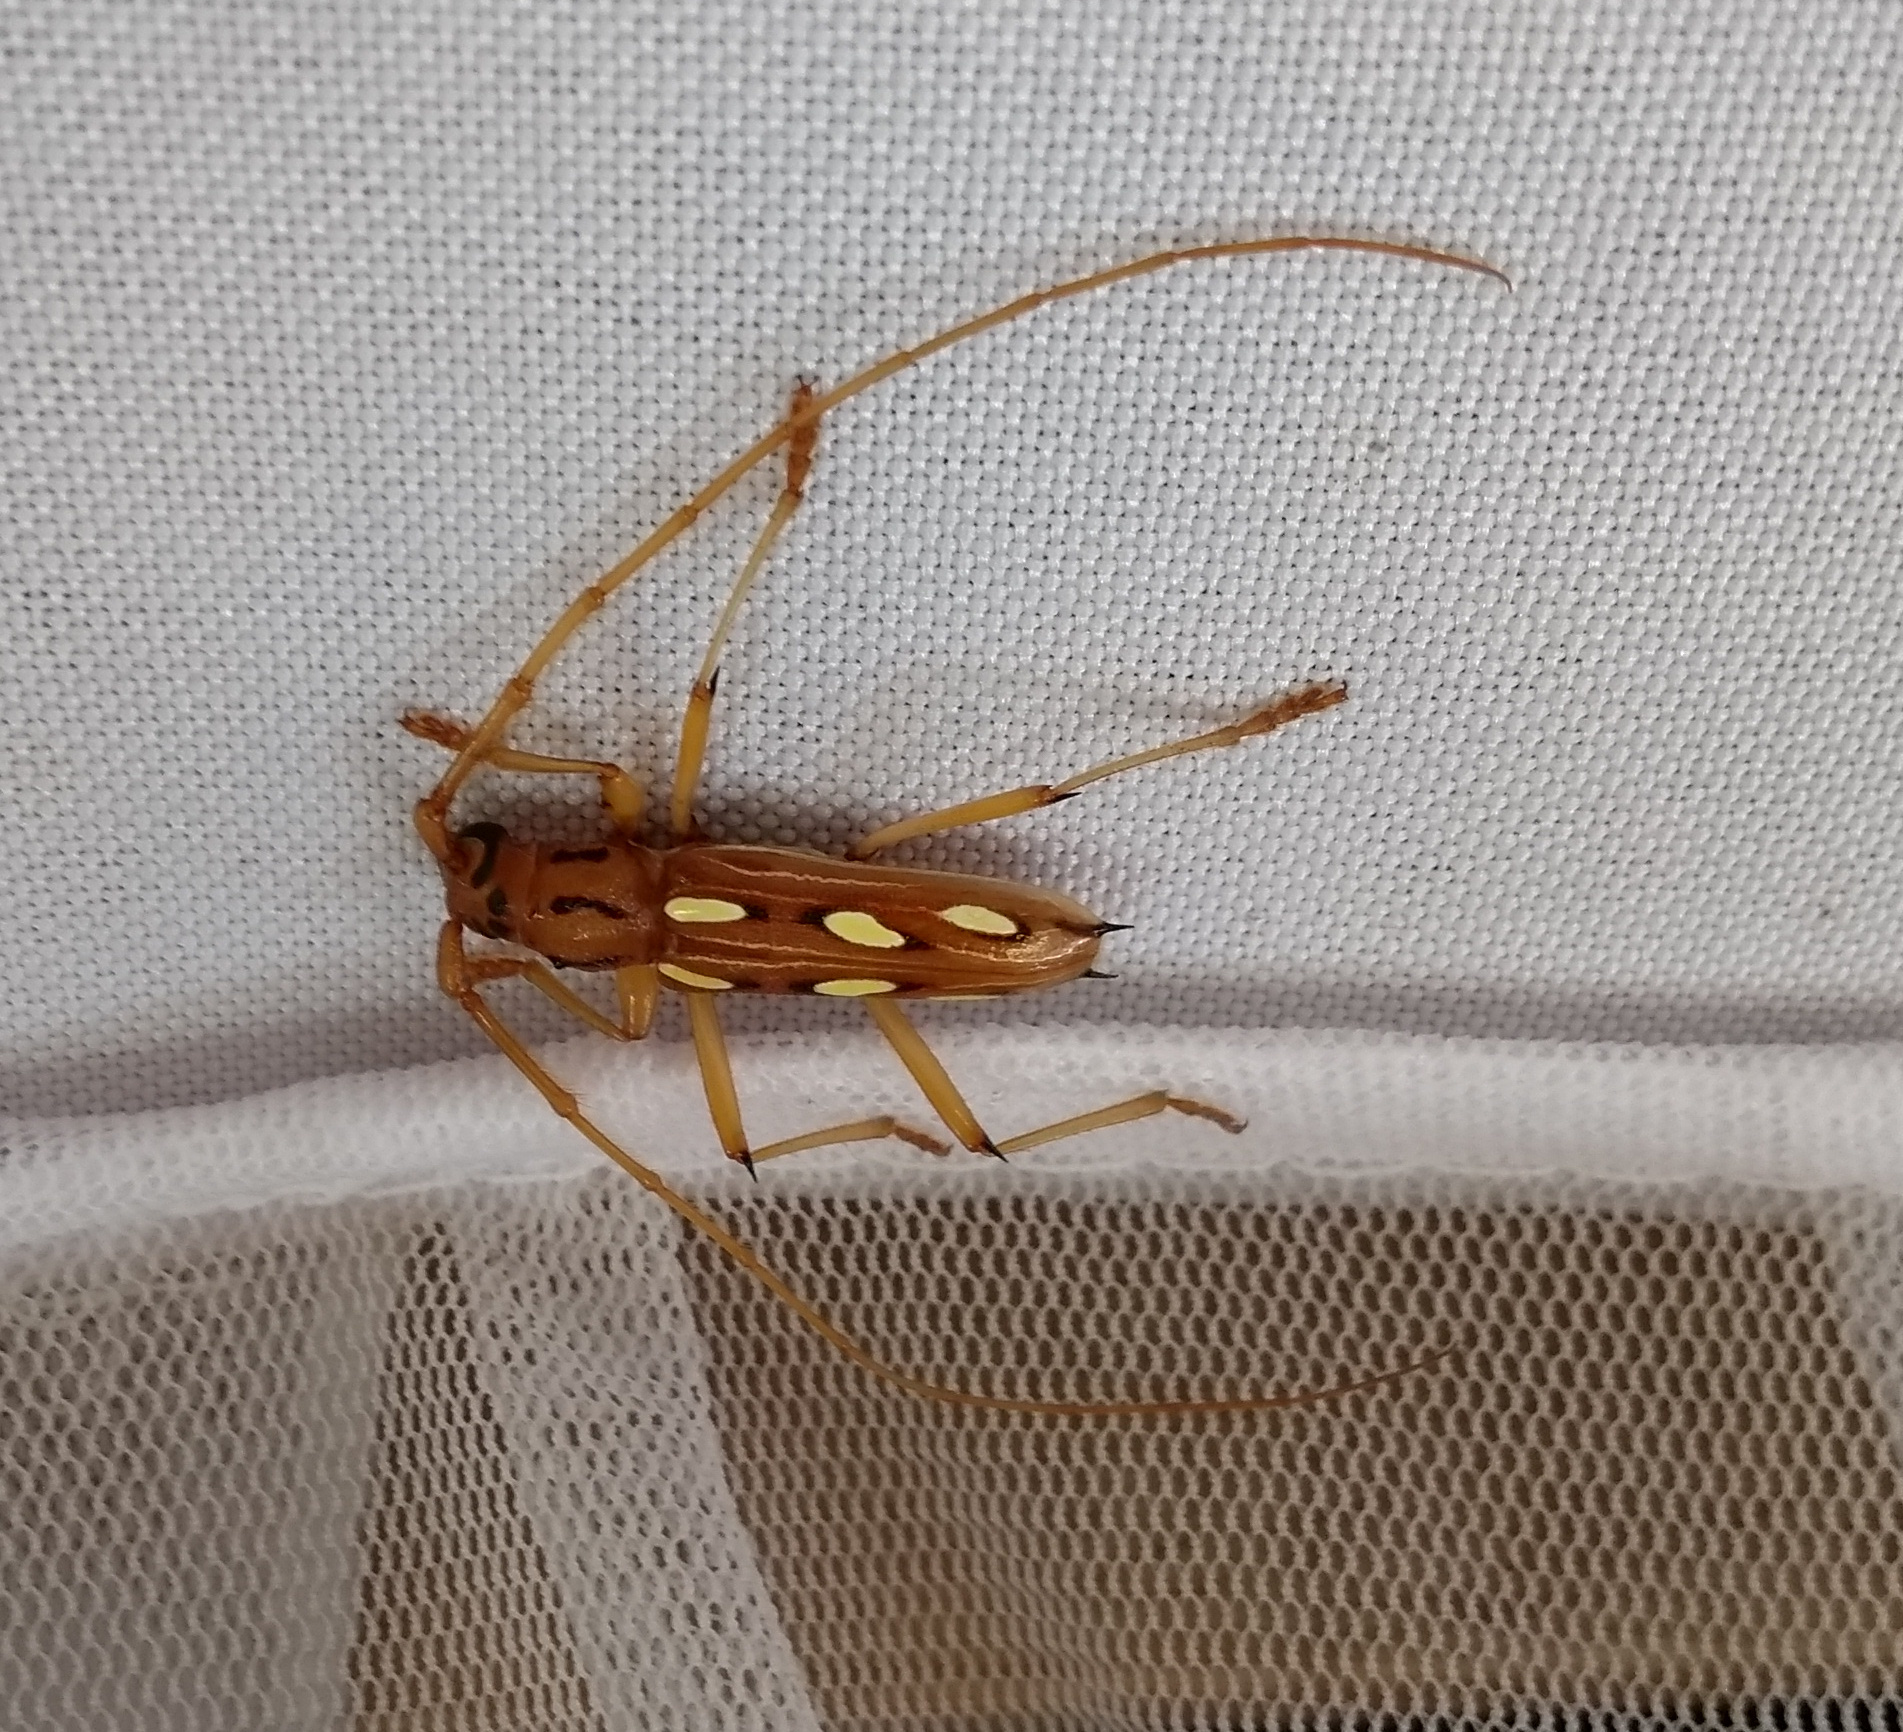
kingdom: Animalia
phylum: Arthropoda
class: Insecta
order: Coleoptera
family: Cerambycidae
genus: Eburodacrys
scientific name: Eburodacrys sexmaculata
